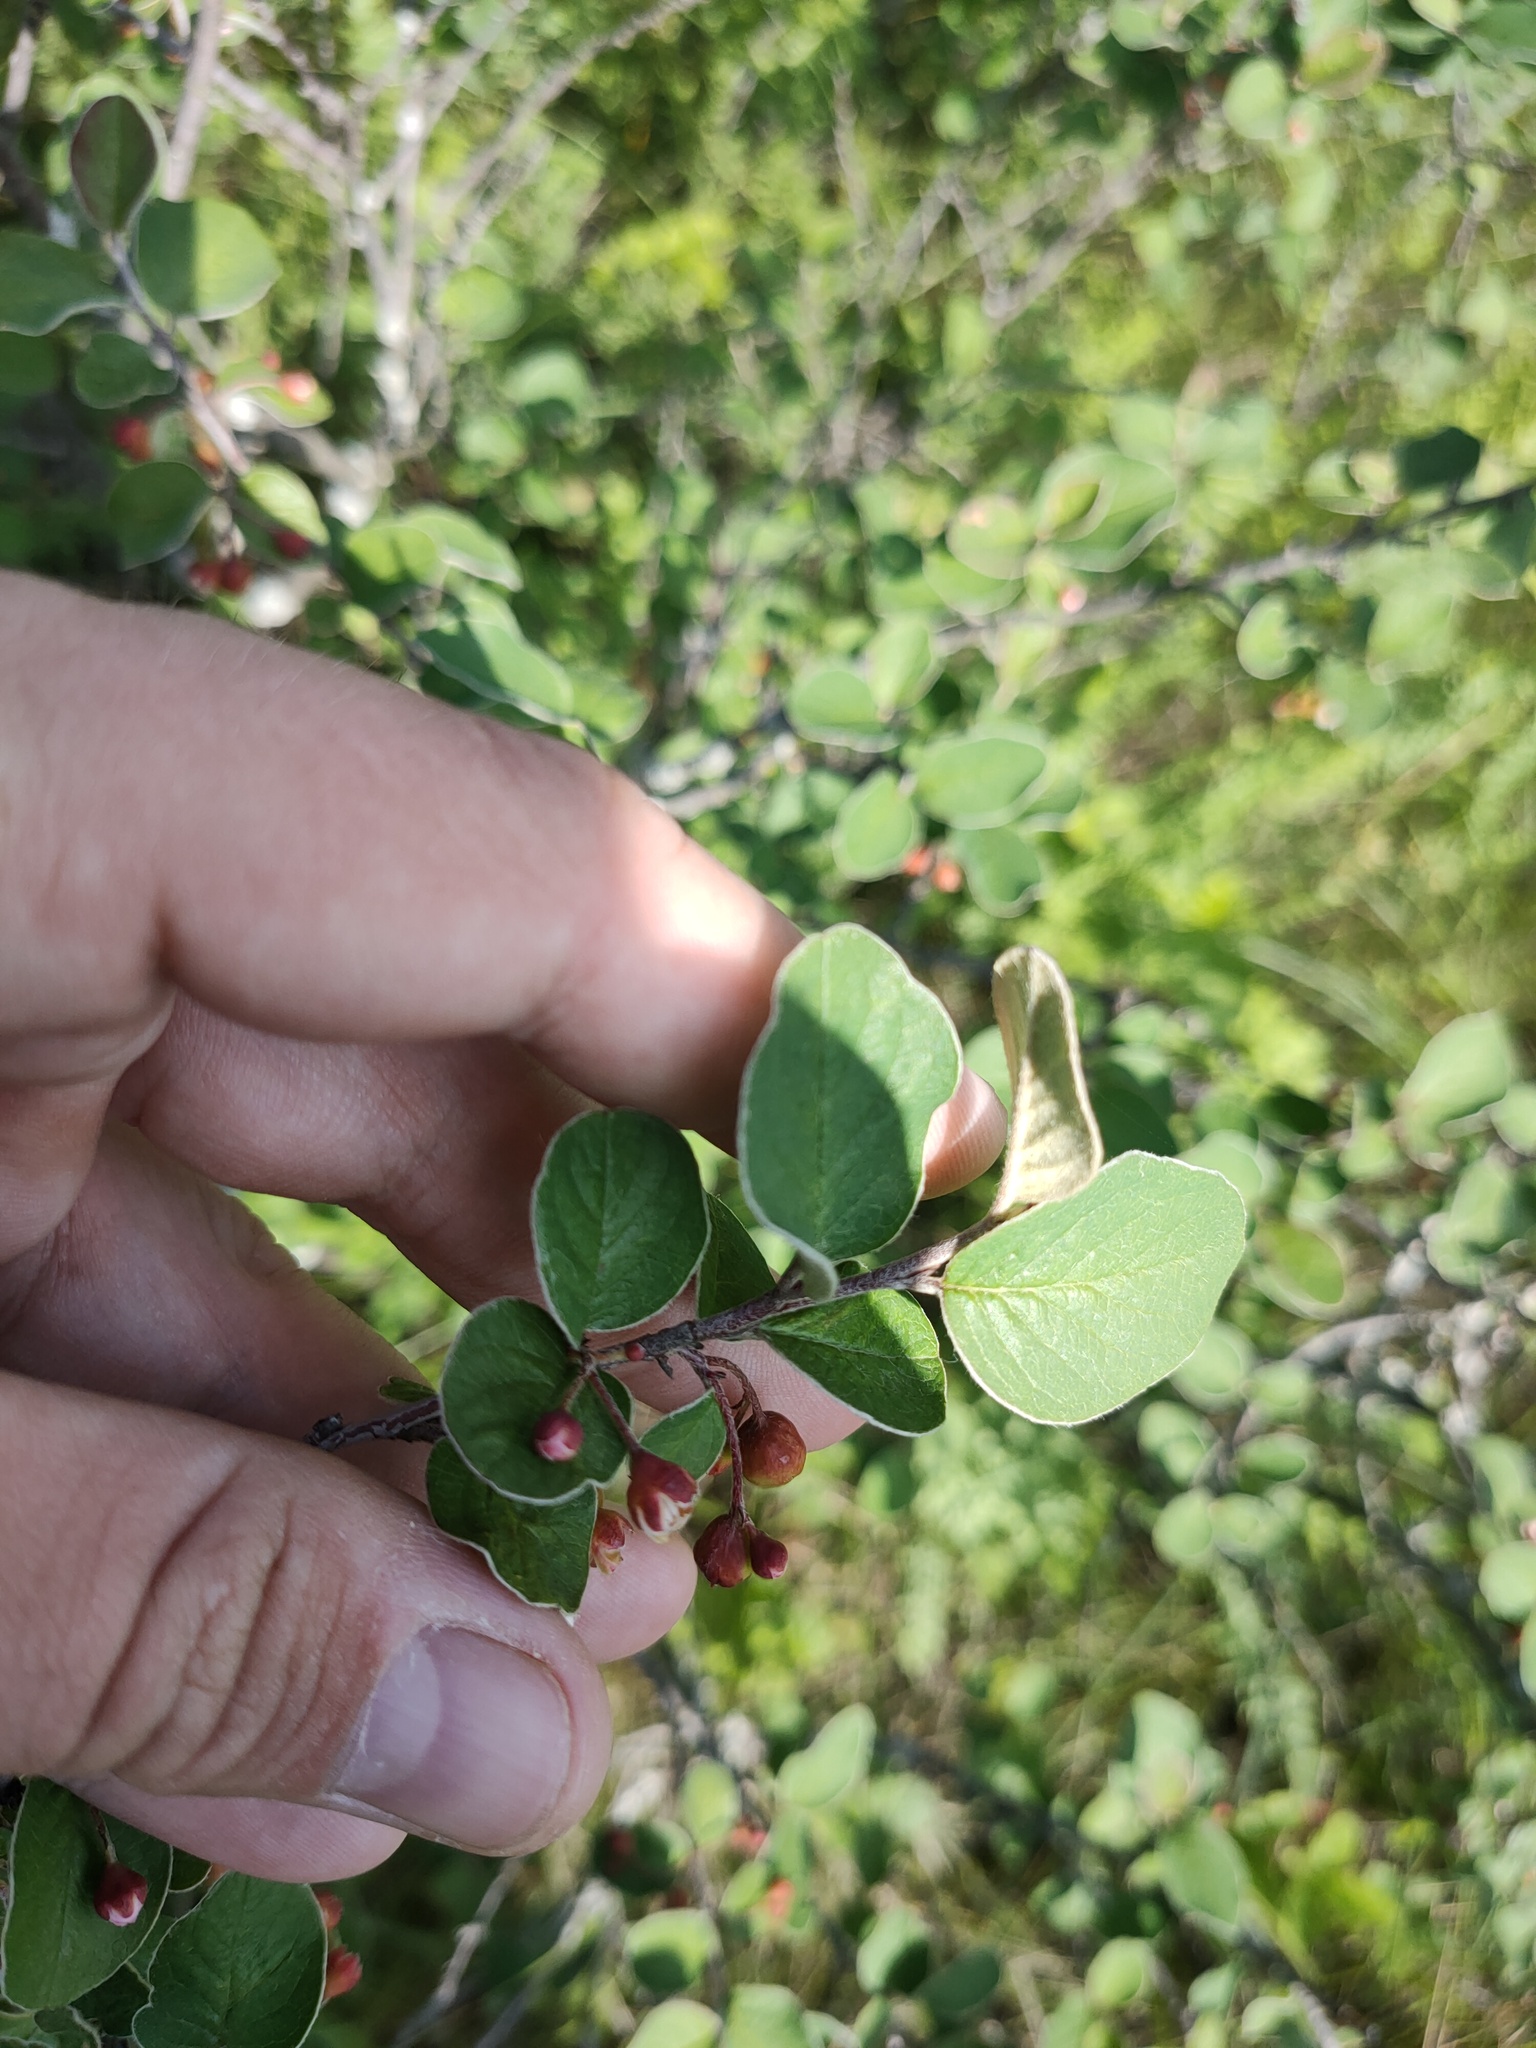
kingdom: Plantae
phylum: Tracheophyta
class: Magnoliopsida
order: Rosales
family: Rosaceae
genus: Cotoneaster
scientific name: Cotoneaster melanocarpus
